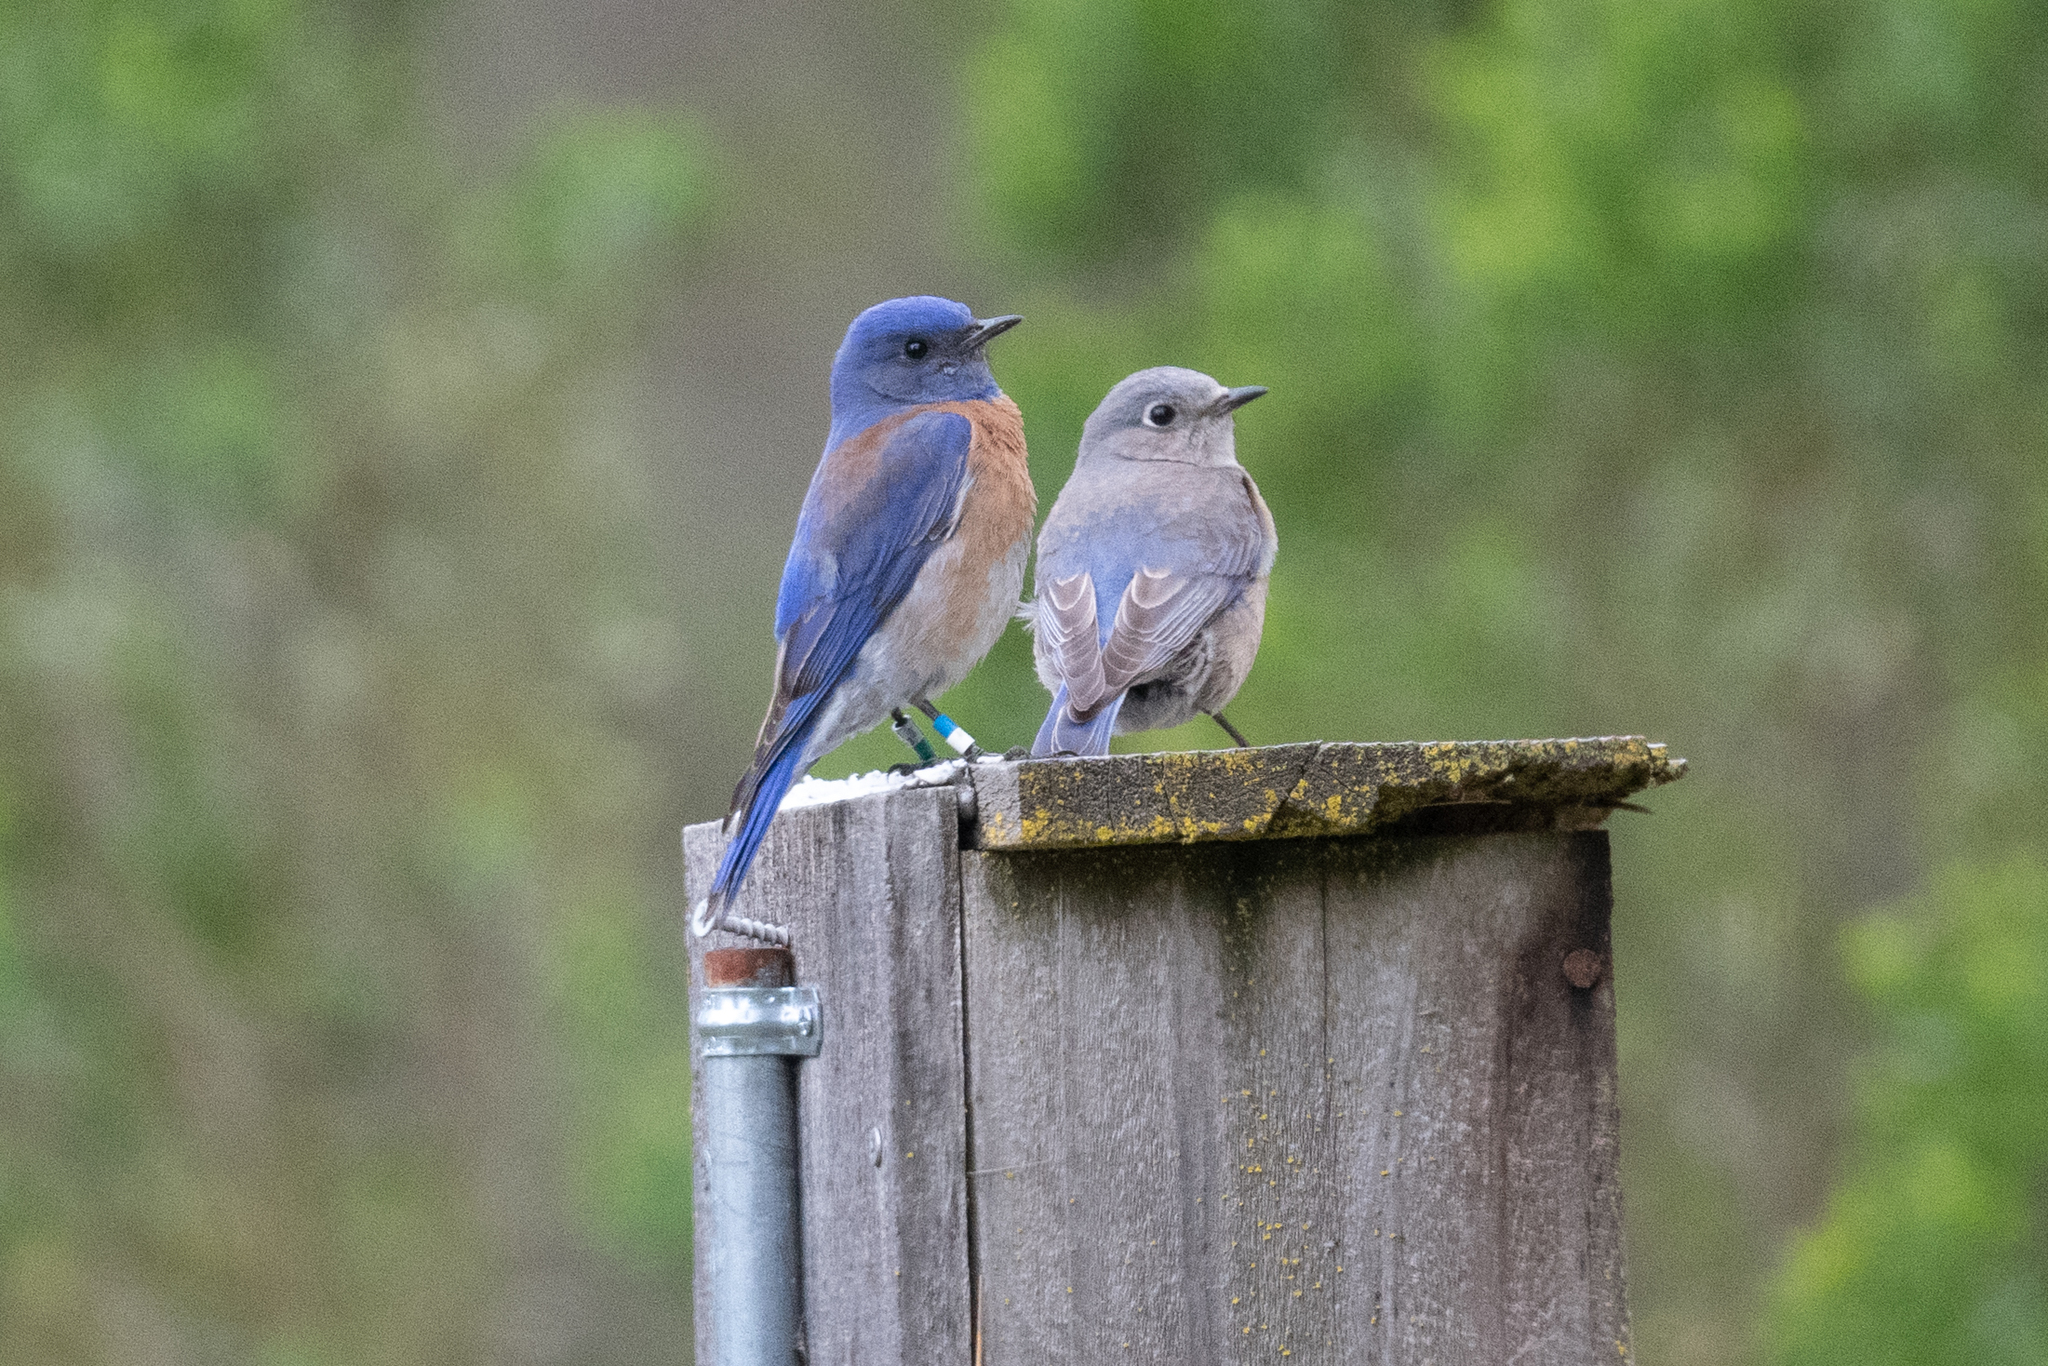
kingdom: Animalia
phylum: Chordata
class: Aves
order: Passeriformes
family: Turdidae
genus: Sialia
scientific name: Sialia mexicana
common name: Western bluebird
